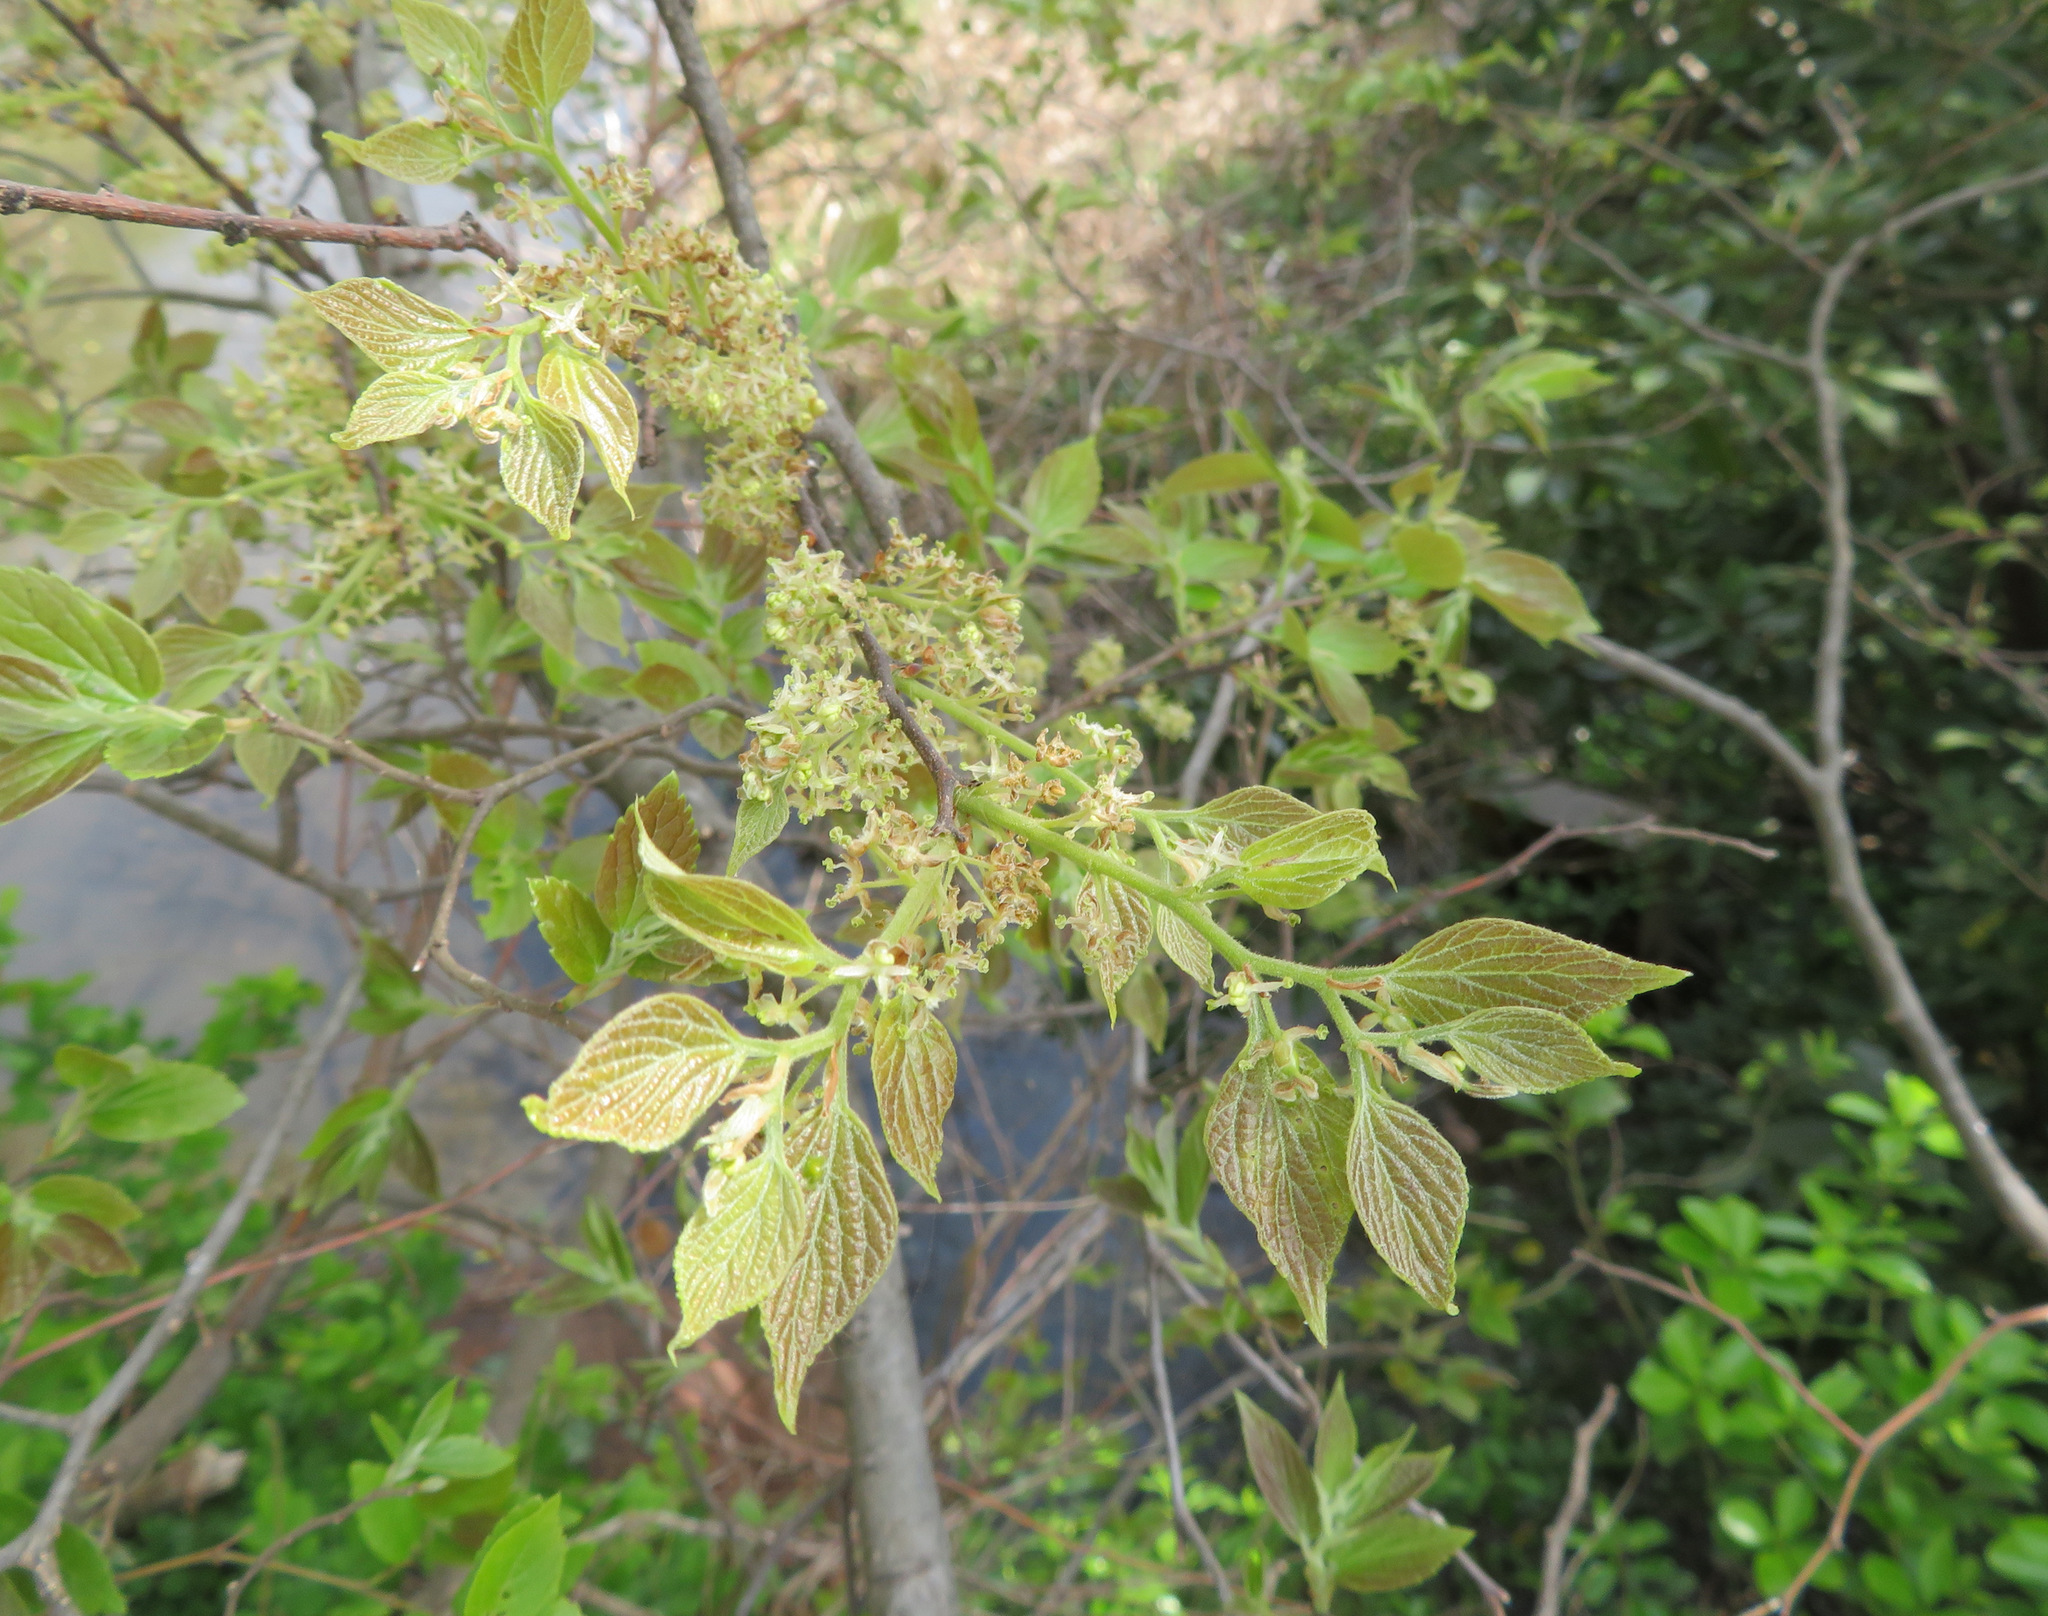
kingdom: Plantae
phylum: Tracheophyta
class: Magnoliopsida
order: Rosales
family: Cannabaceae
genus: Celtis
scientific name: Celtis sinensis
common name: Chinese hackberry
